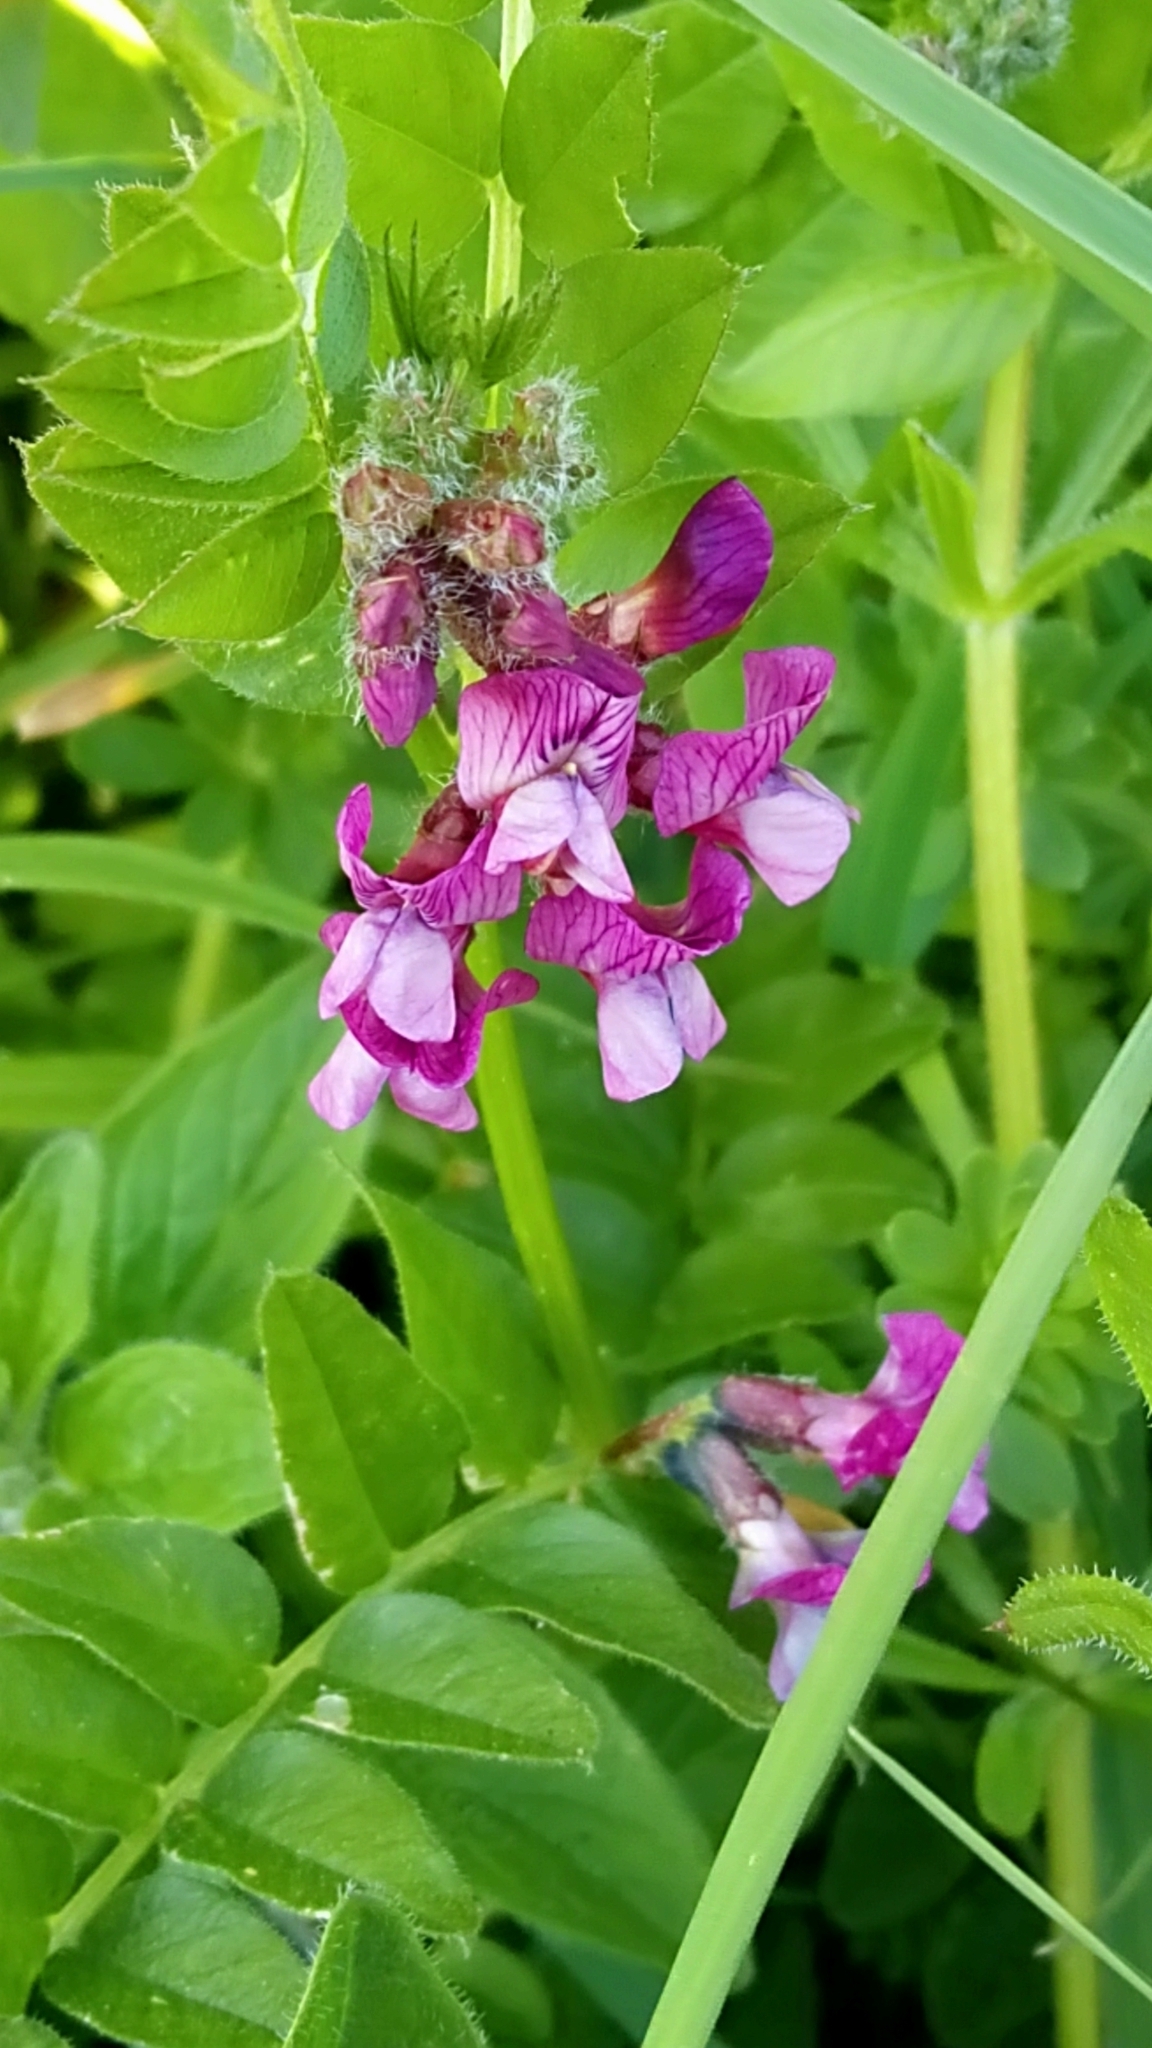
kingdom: Plantae
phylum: Tracheophyta
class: Magnoliopsida
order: Fabales
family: Fabaceae
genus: Vicia
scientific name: Vicia sepium
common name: Bush vetch
